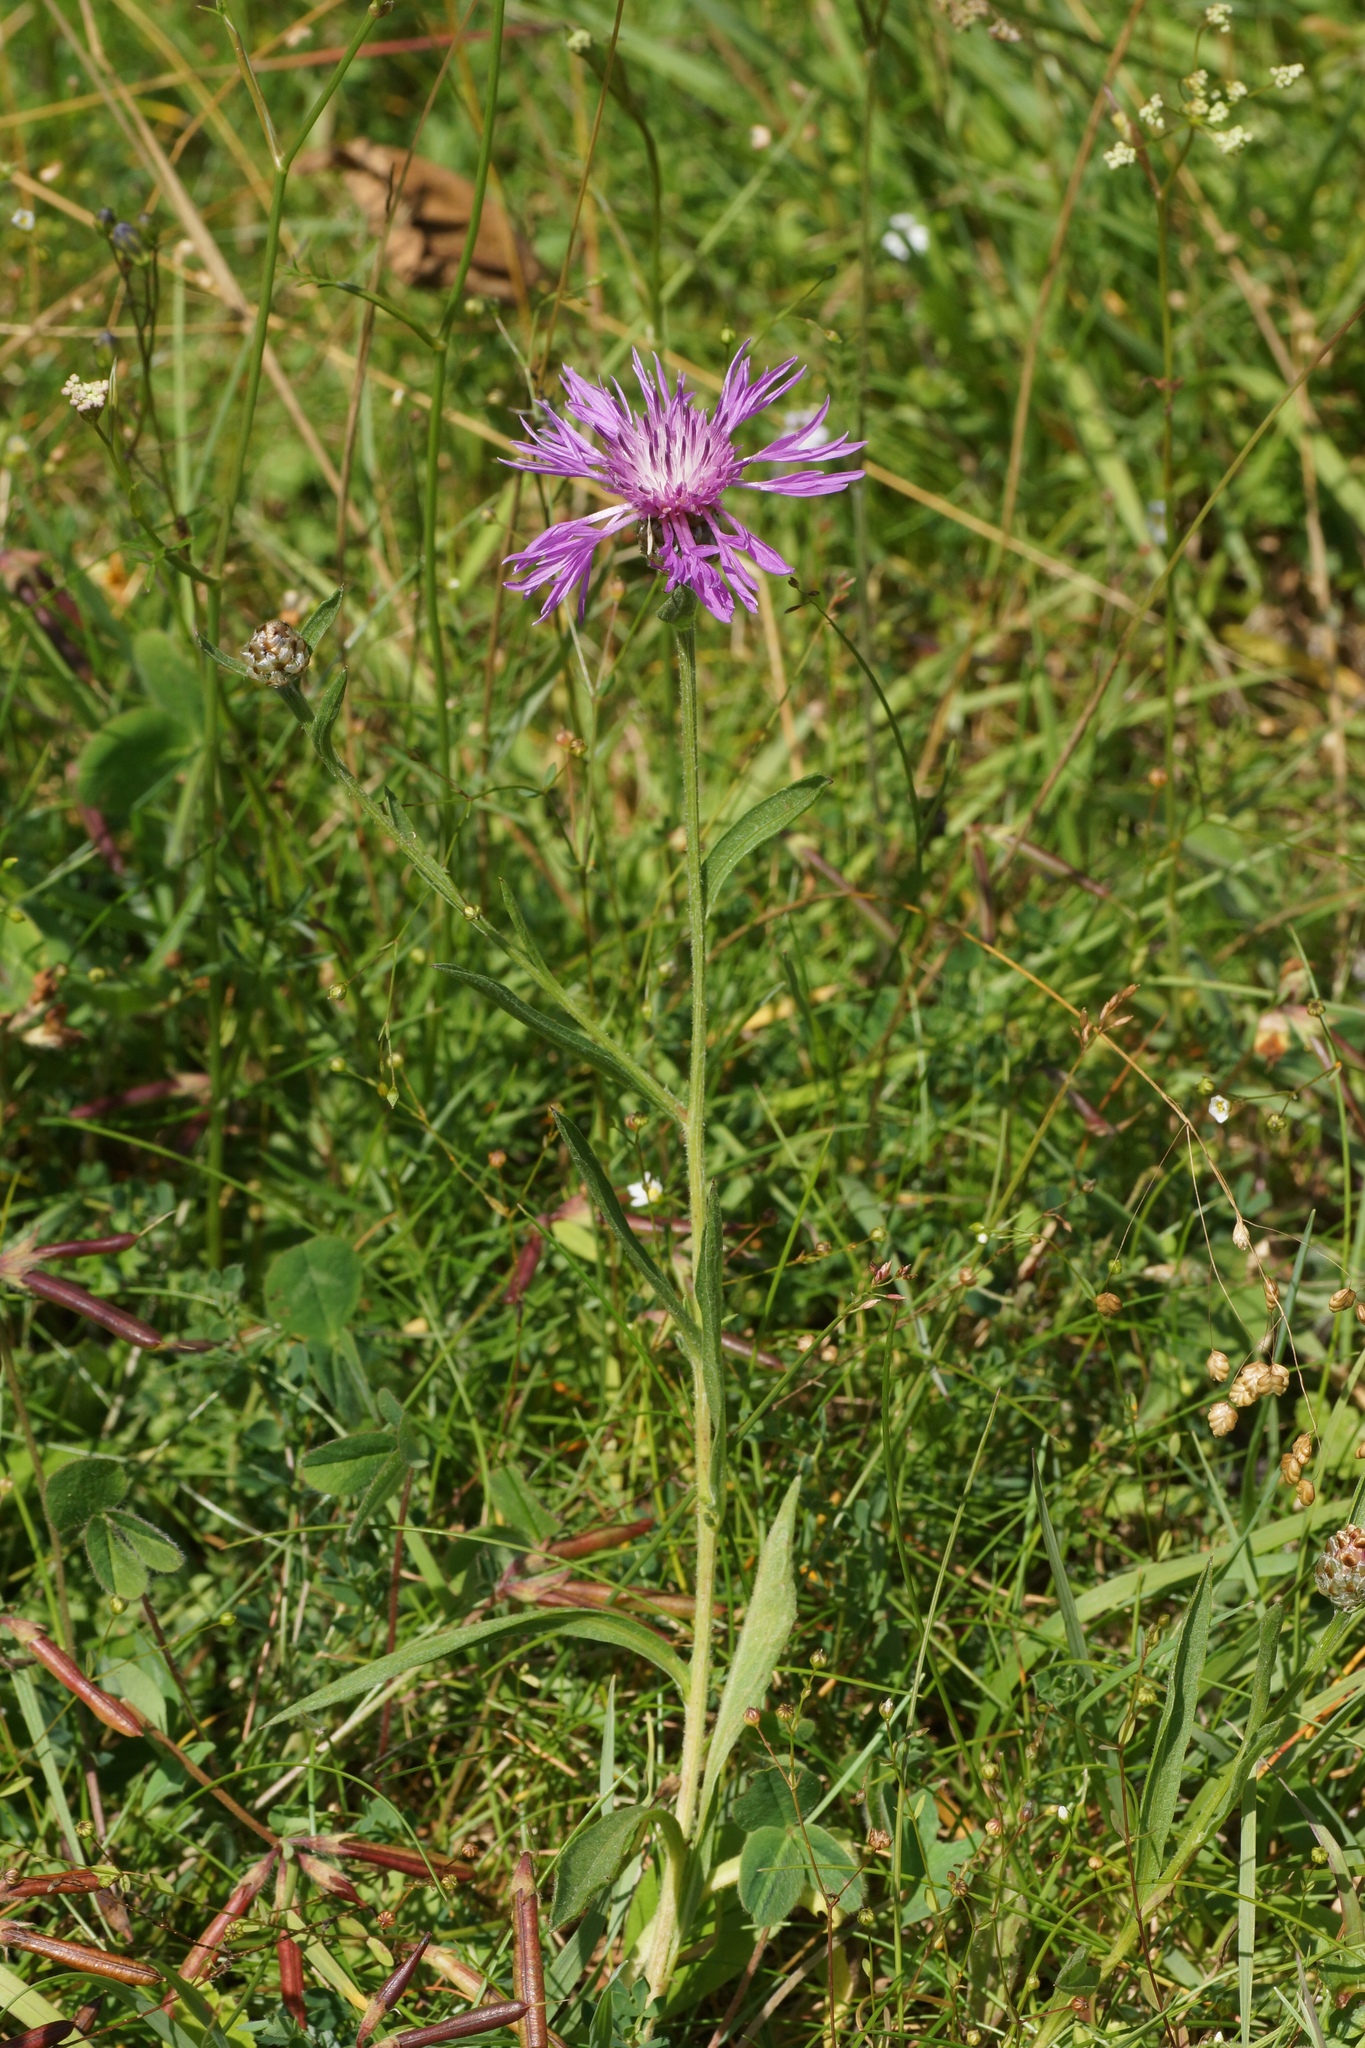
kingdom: Plantae
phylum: Tracheophyta
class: Magnoliopsida
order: Asterales
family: Asteraceae
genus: Centaurea
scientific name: Centaurea jacea
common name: Brown knapweed
